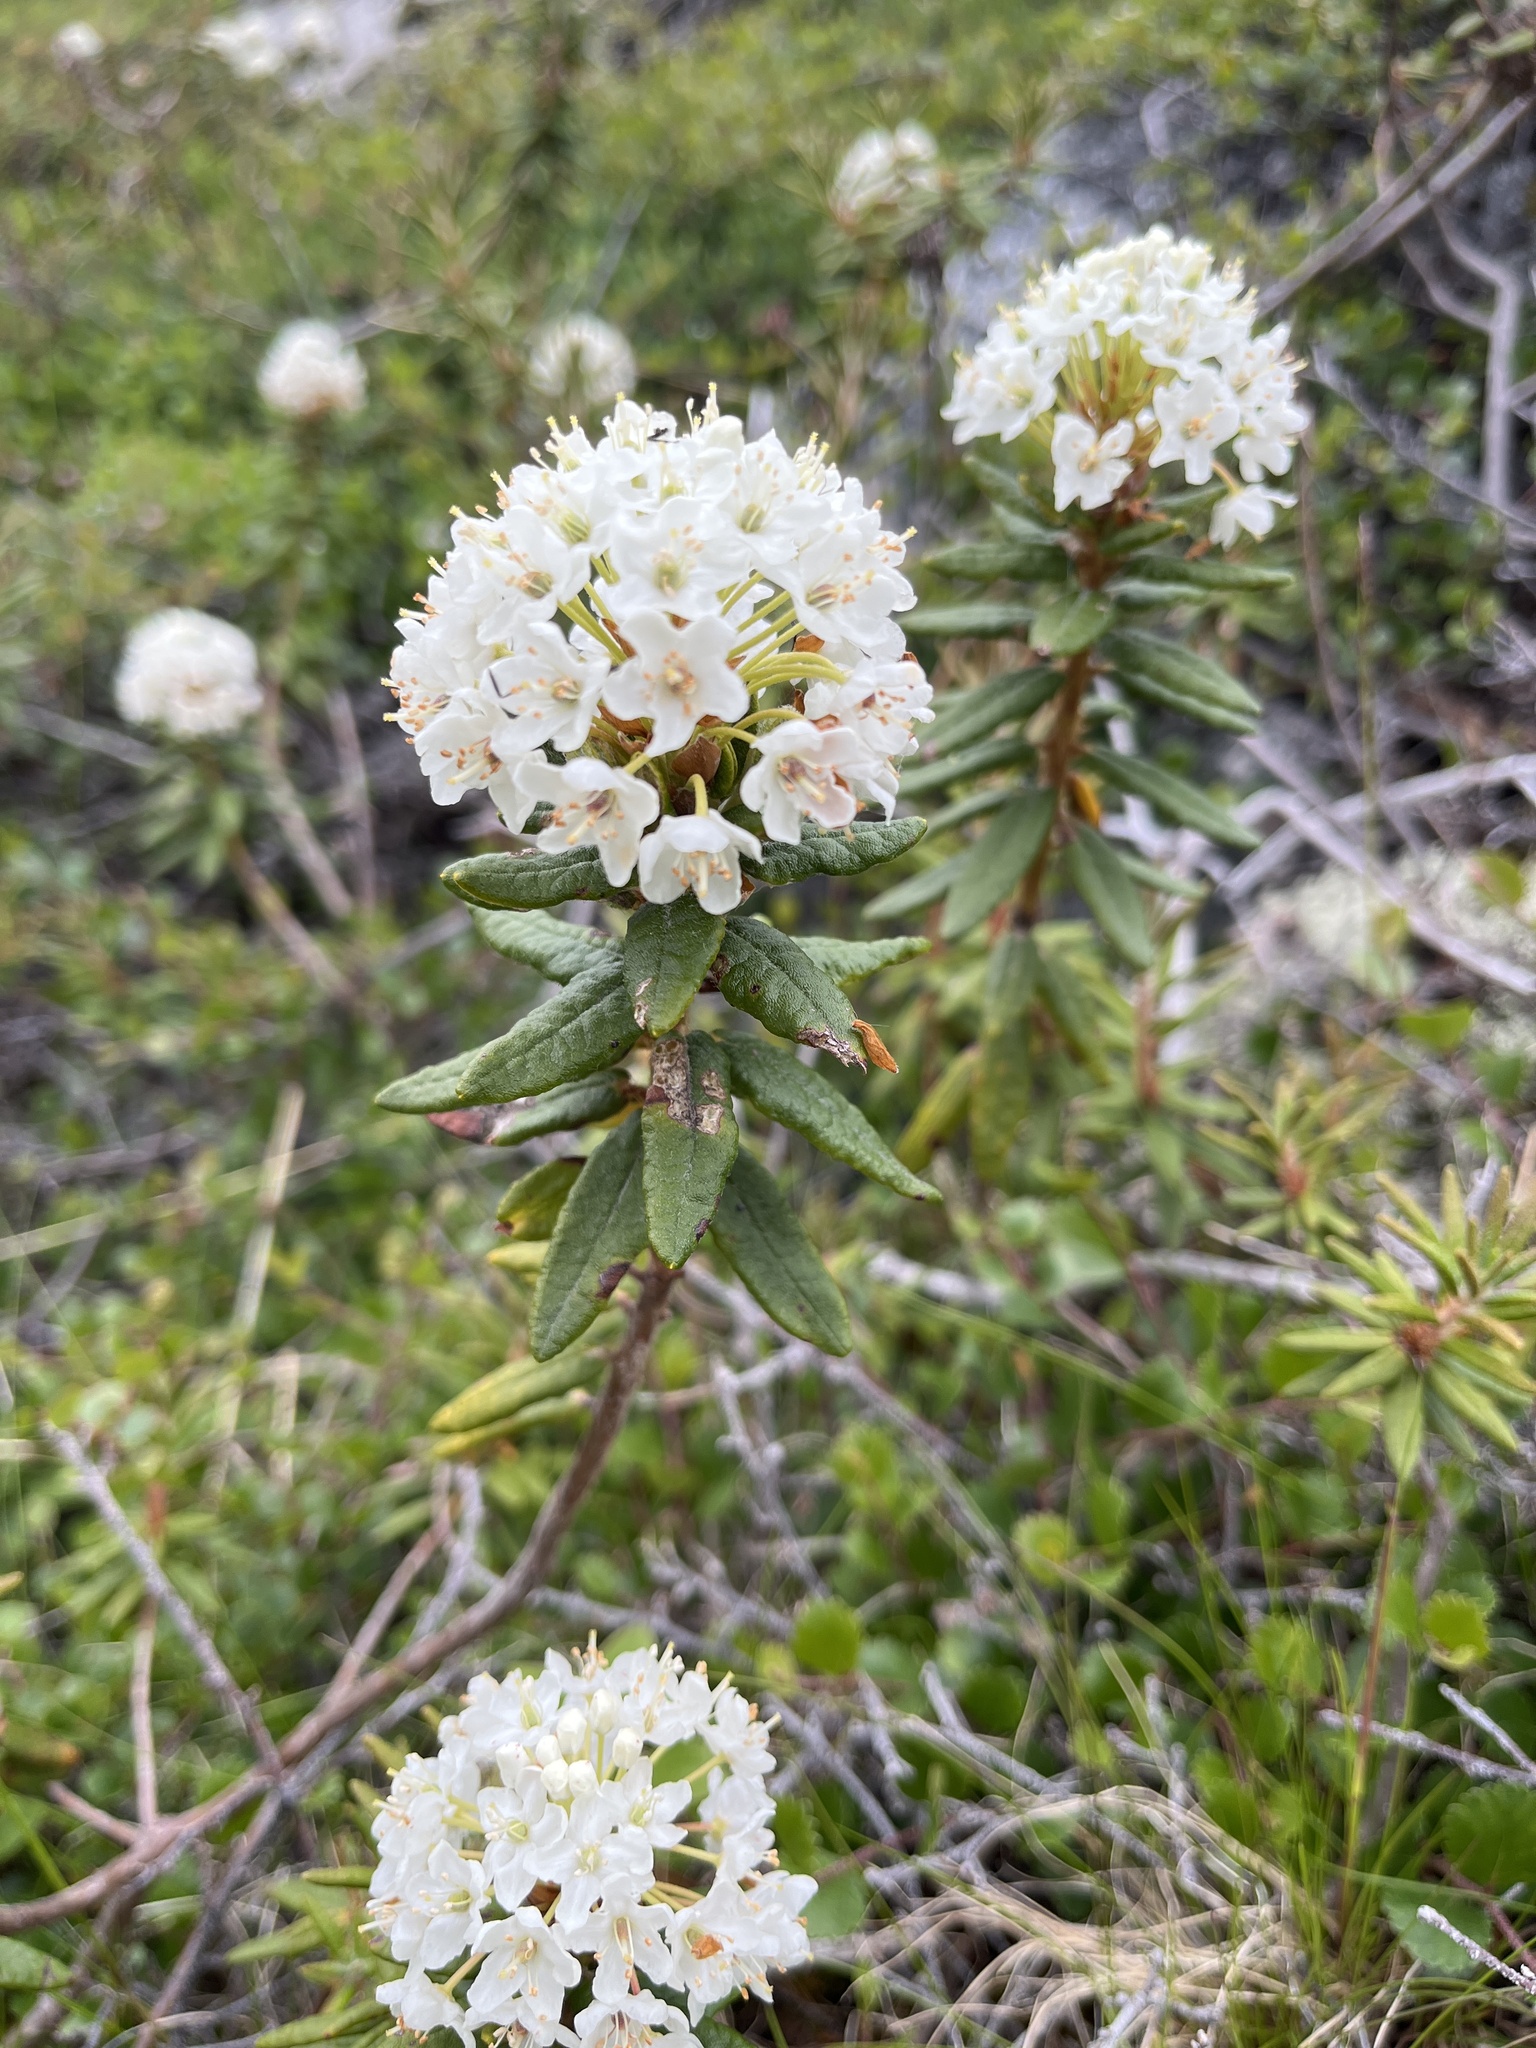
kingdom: Plantae
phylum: Tracheophyta
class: Magnoliopsida
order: Ericales
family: Ericaceae
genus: Rhododendron
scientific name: Rhododendron groenlandicum
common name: Bog labrador tea
